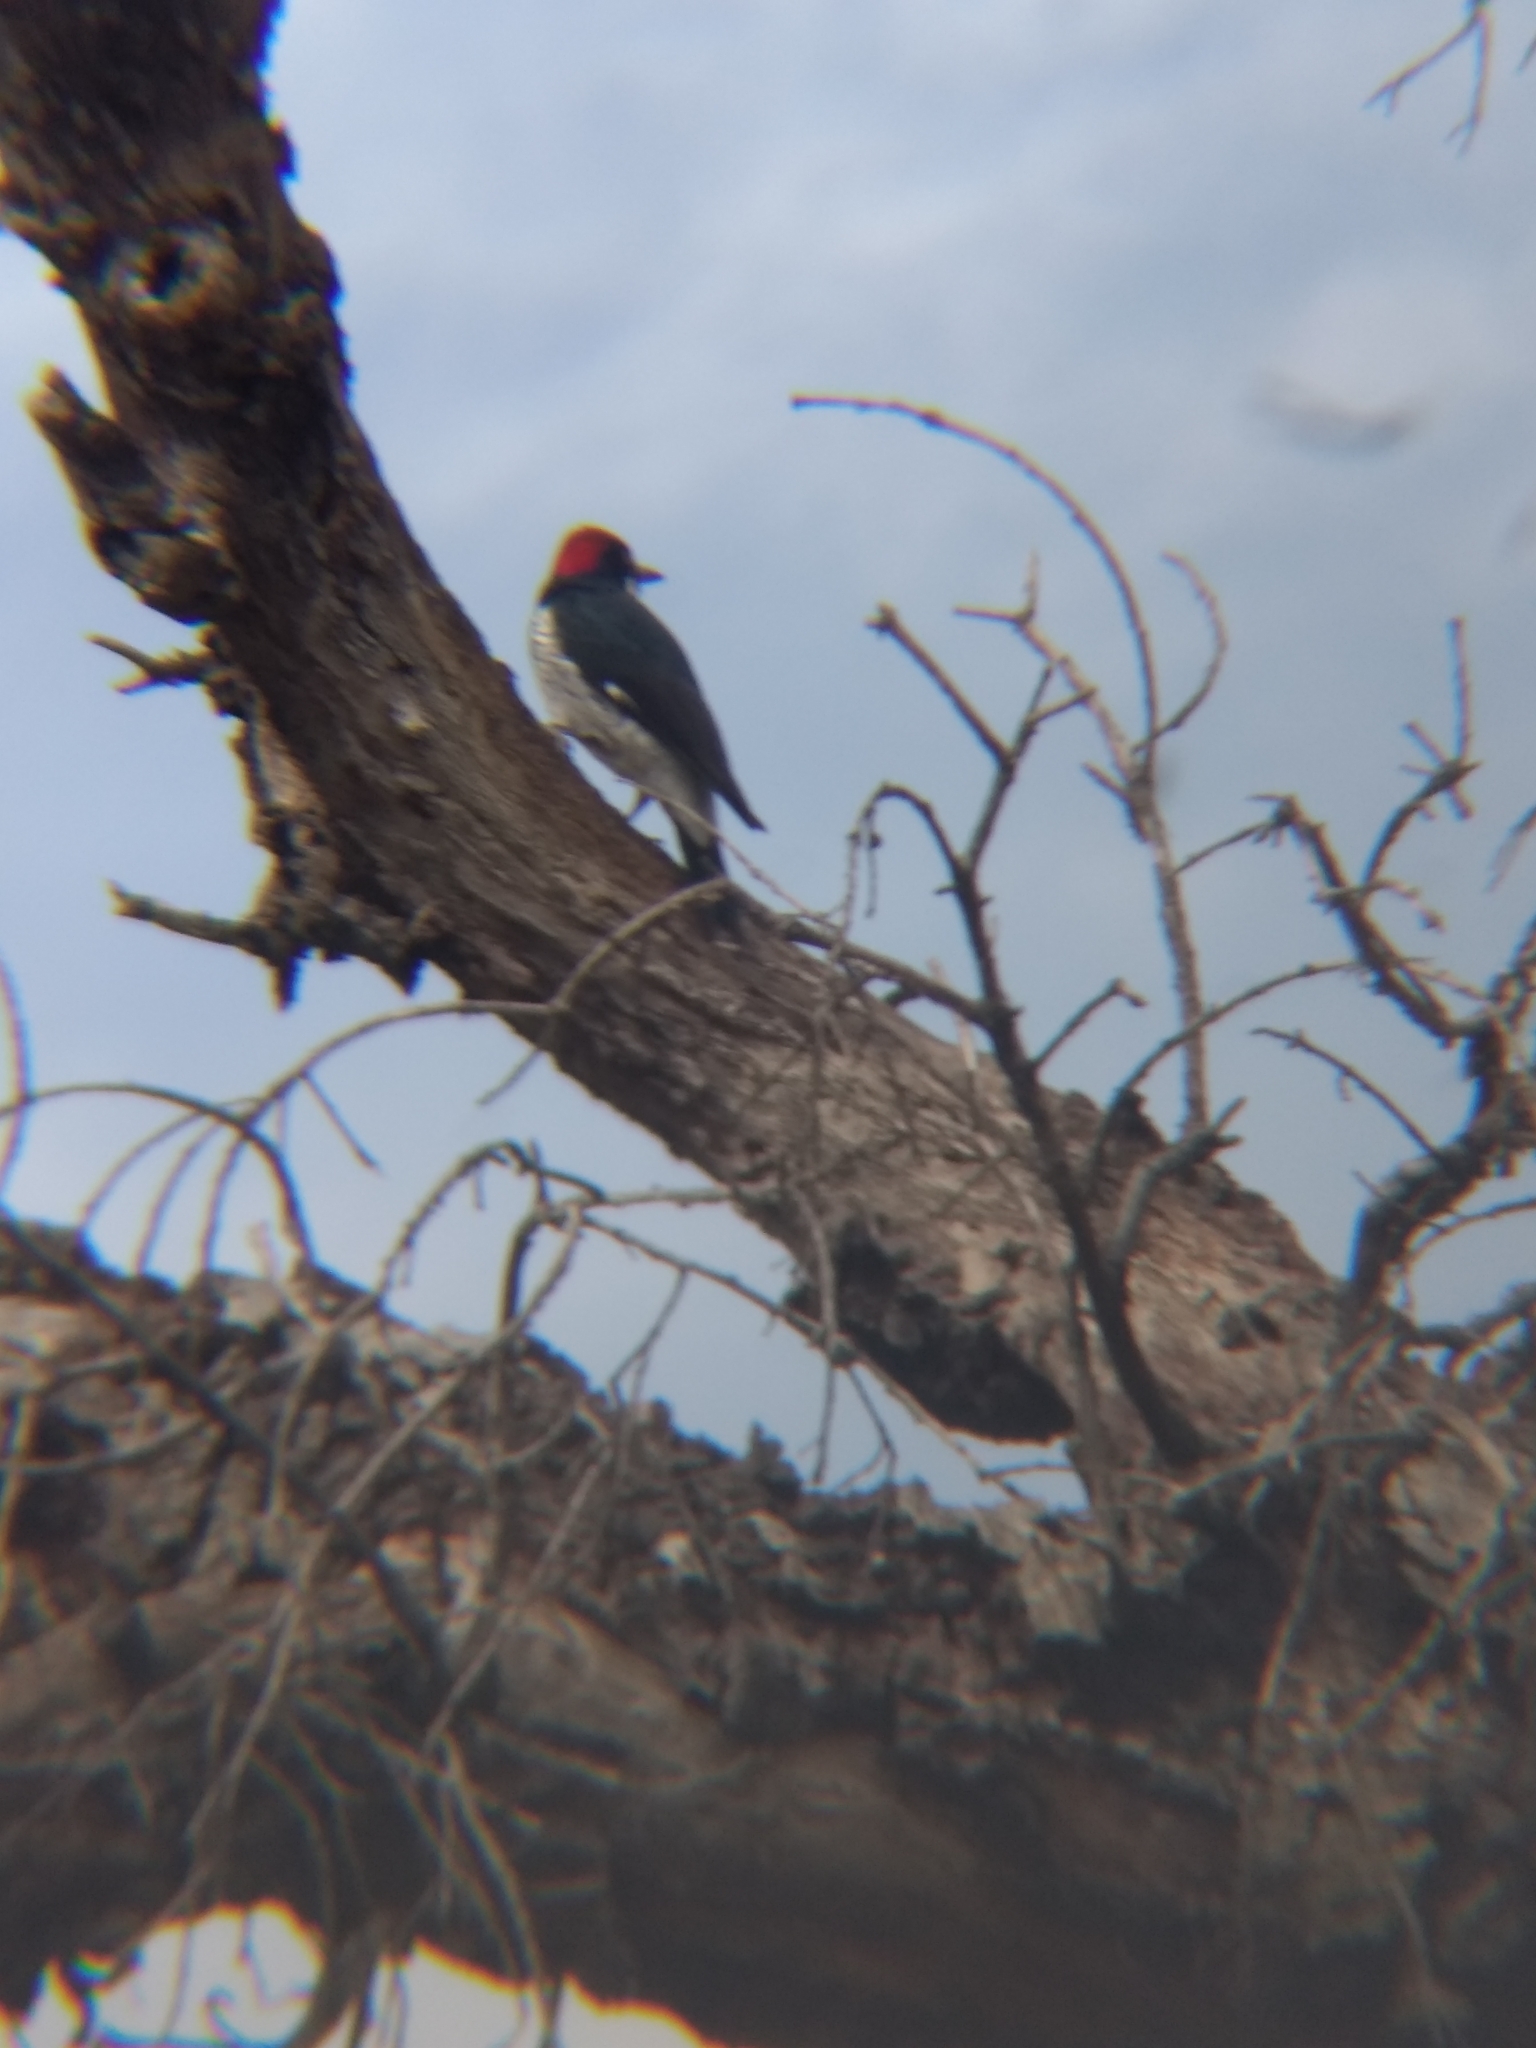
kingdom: Animalia
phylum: Chordata
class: Aves
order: Piciformes
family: Picidae
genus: Melanerpes
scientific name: Melanerpes formicivorus
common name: Acorn woodpecker
